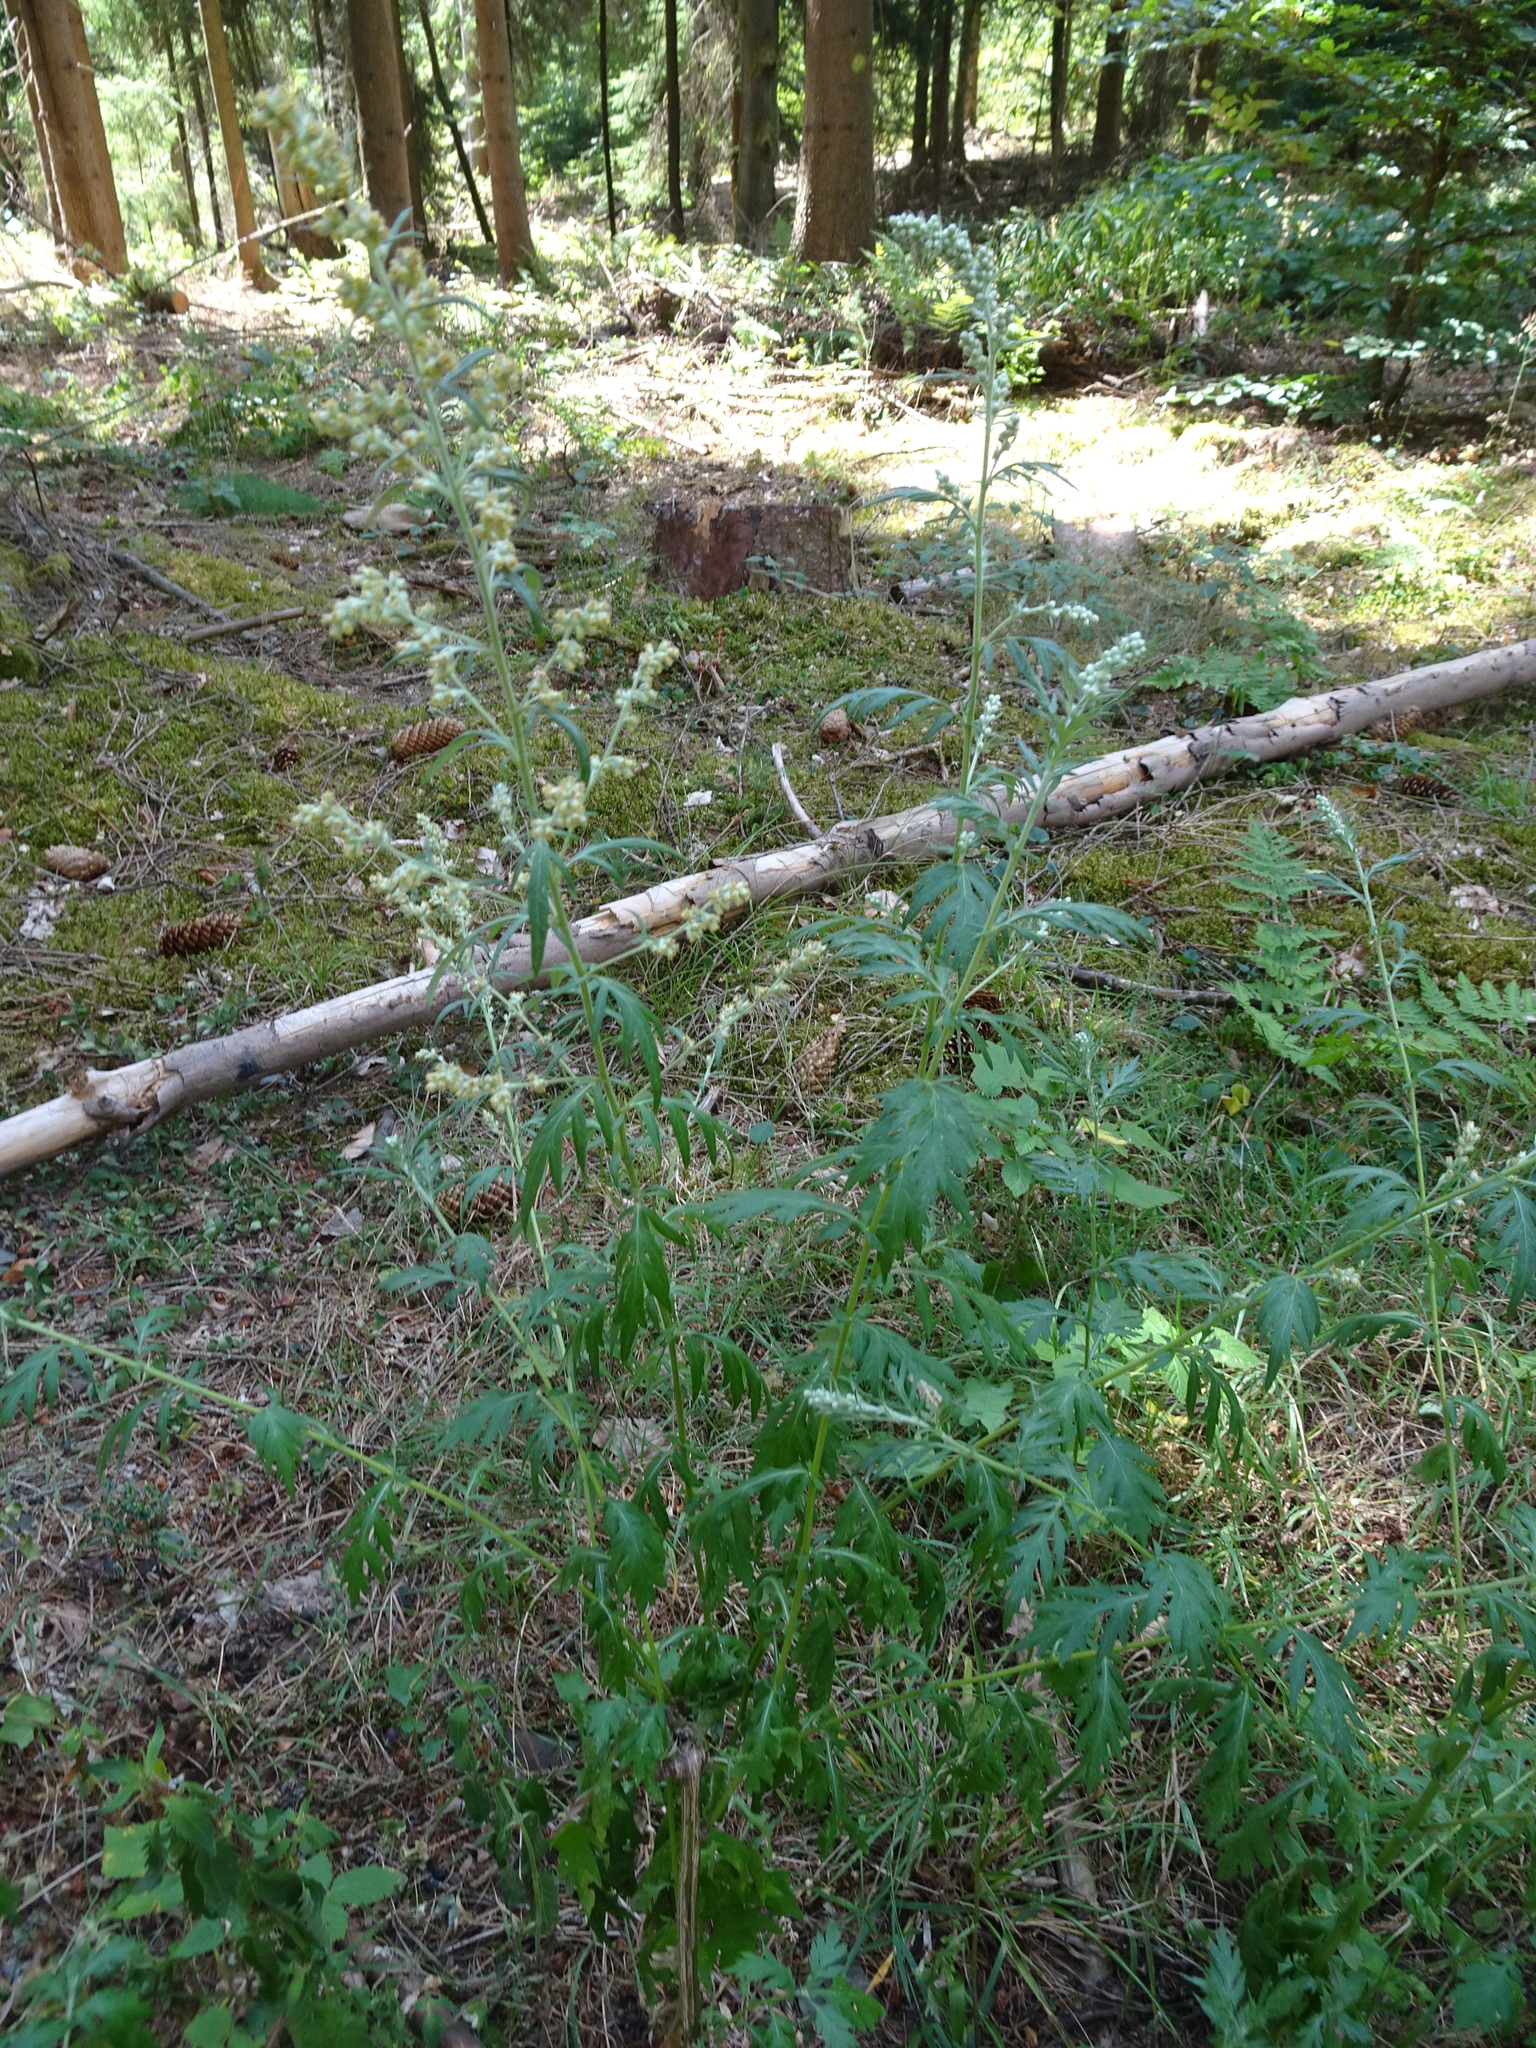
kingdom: Plantae
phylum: Tracheophyta
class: Magnoliopsida
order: Asterales
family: Asteraceae
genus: Artemisia
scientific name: Artemisia vulgaris
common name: Mugwort
